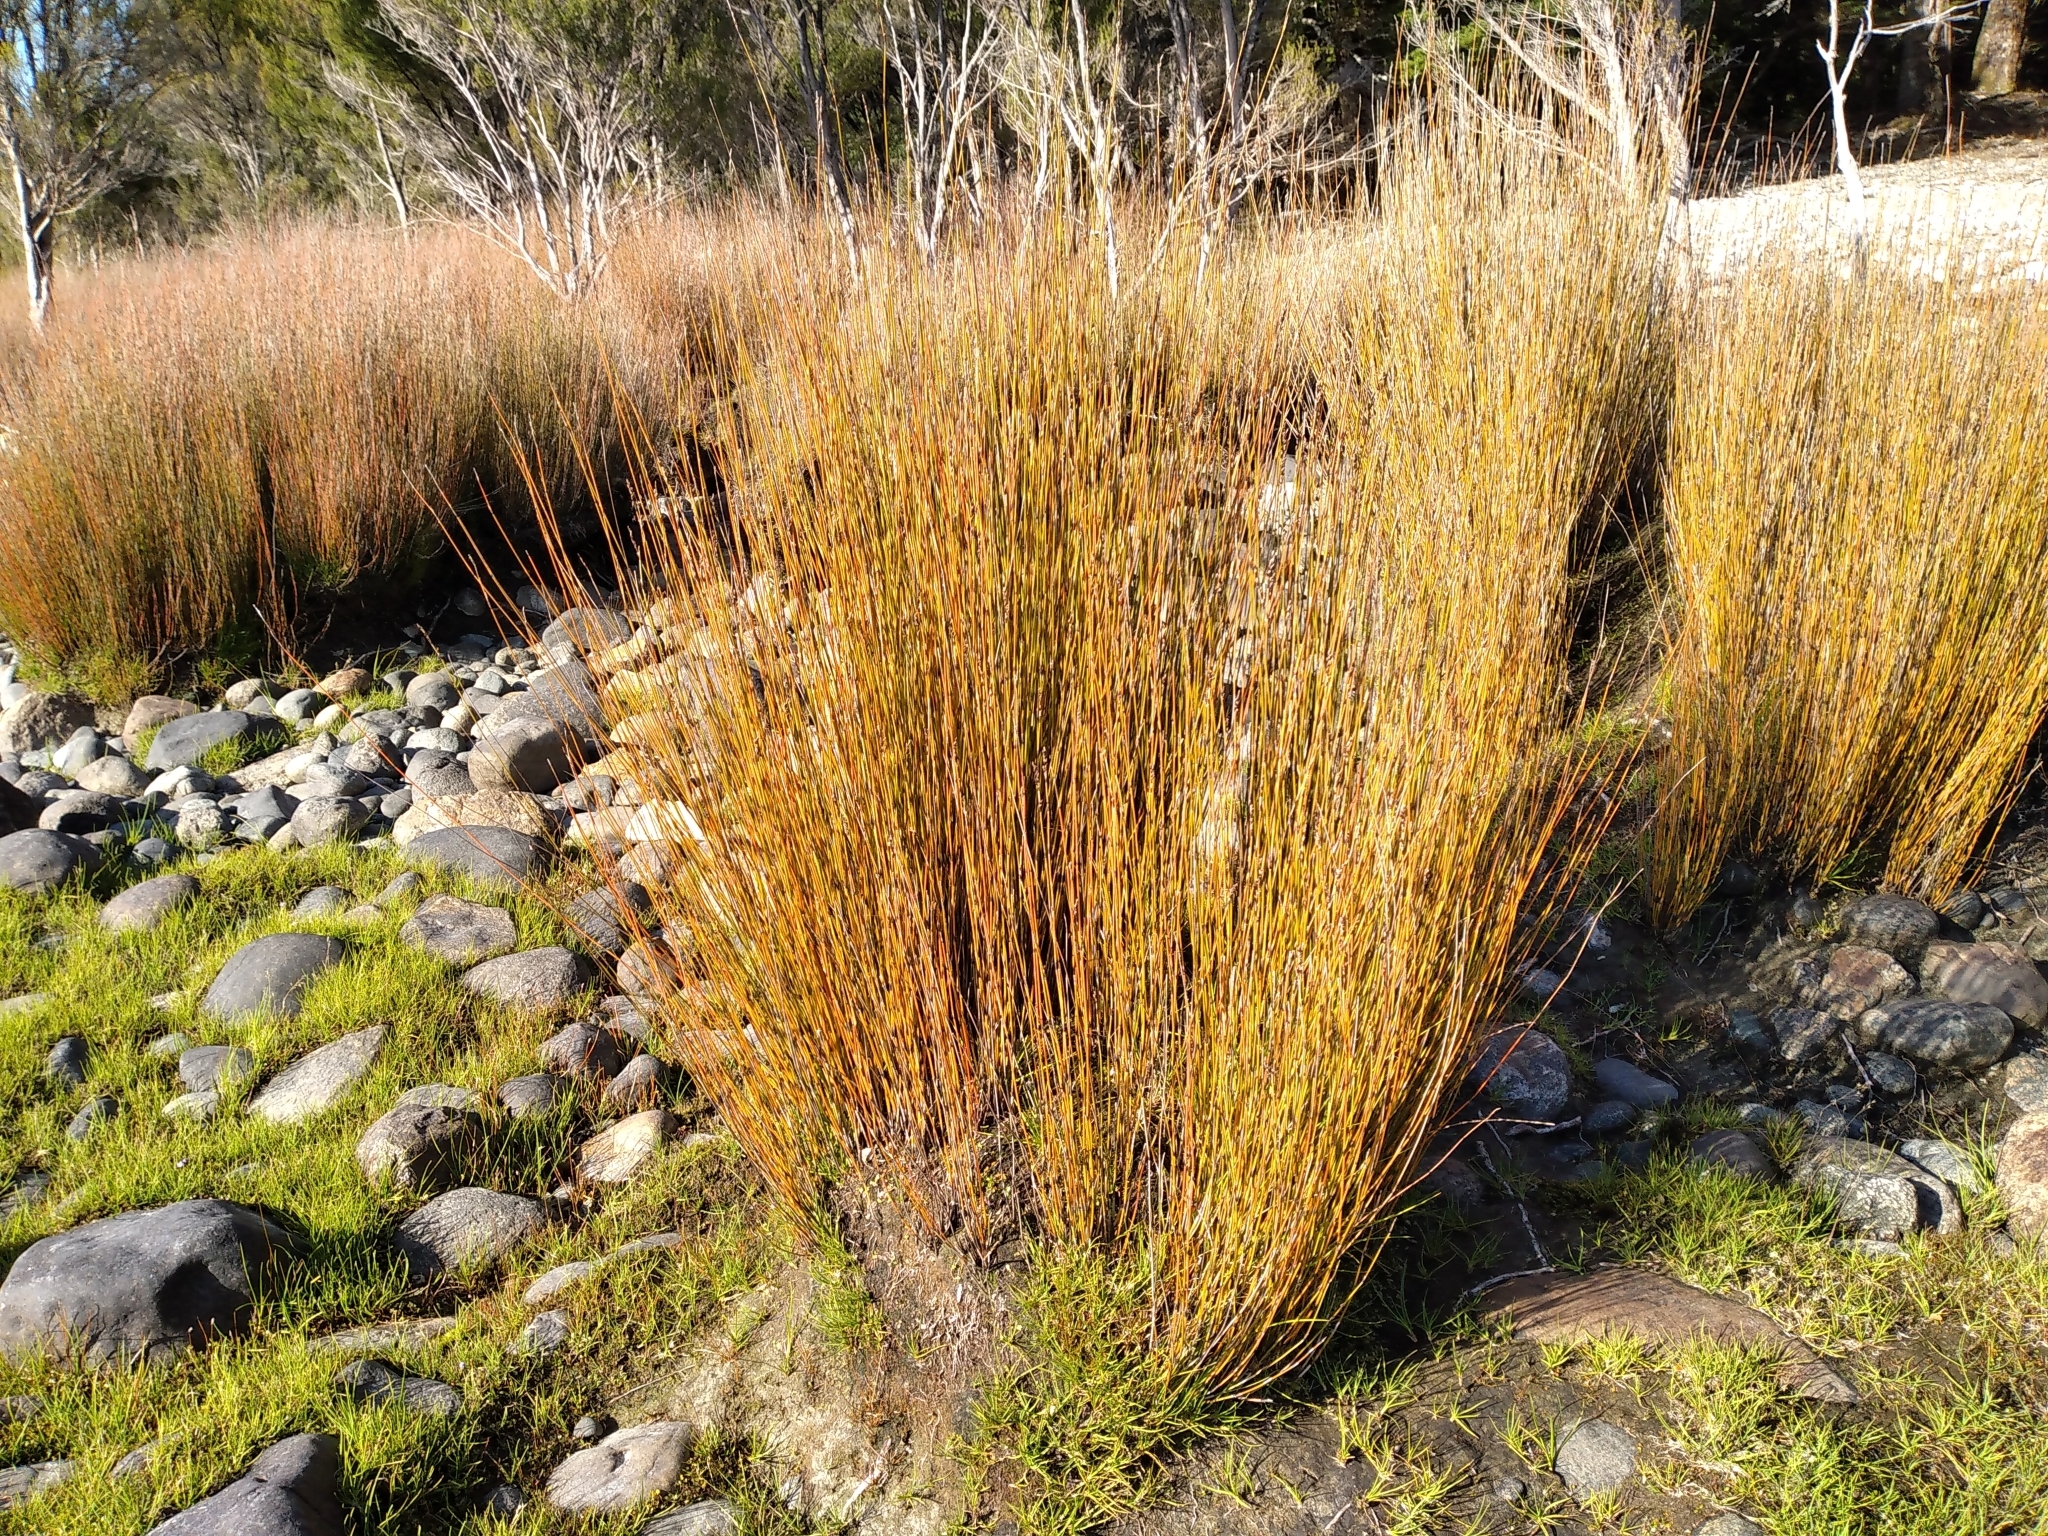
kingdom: Plantae
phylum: Tracheophyta
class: Liliopsida
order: Poales
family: Restionaceae
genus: Apodasmia
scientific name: Apodasmia similis
